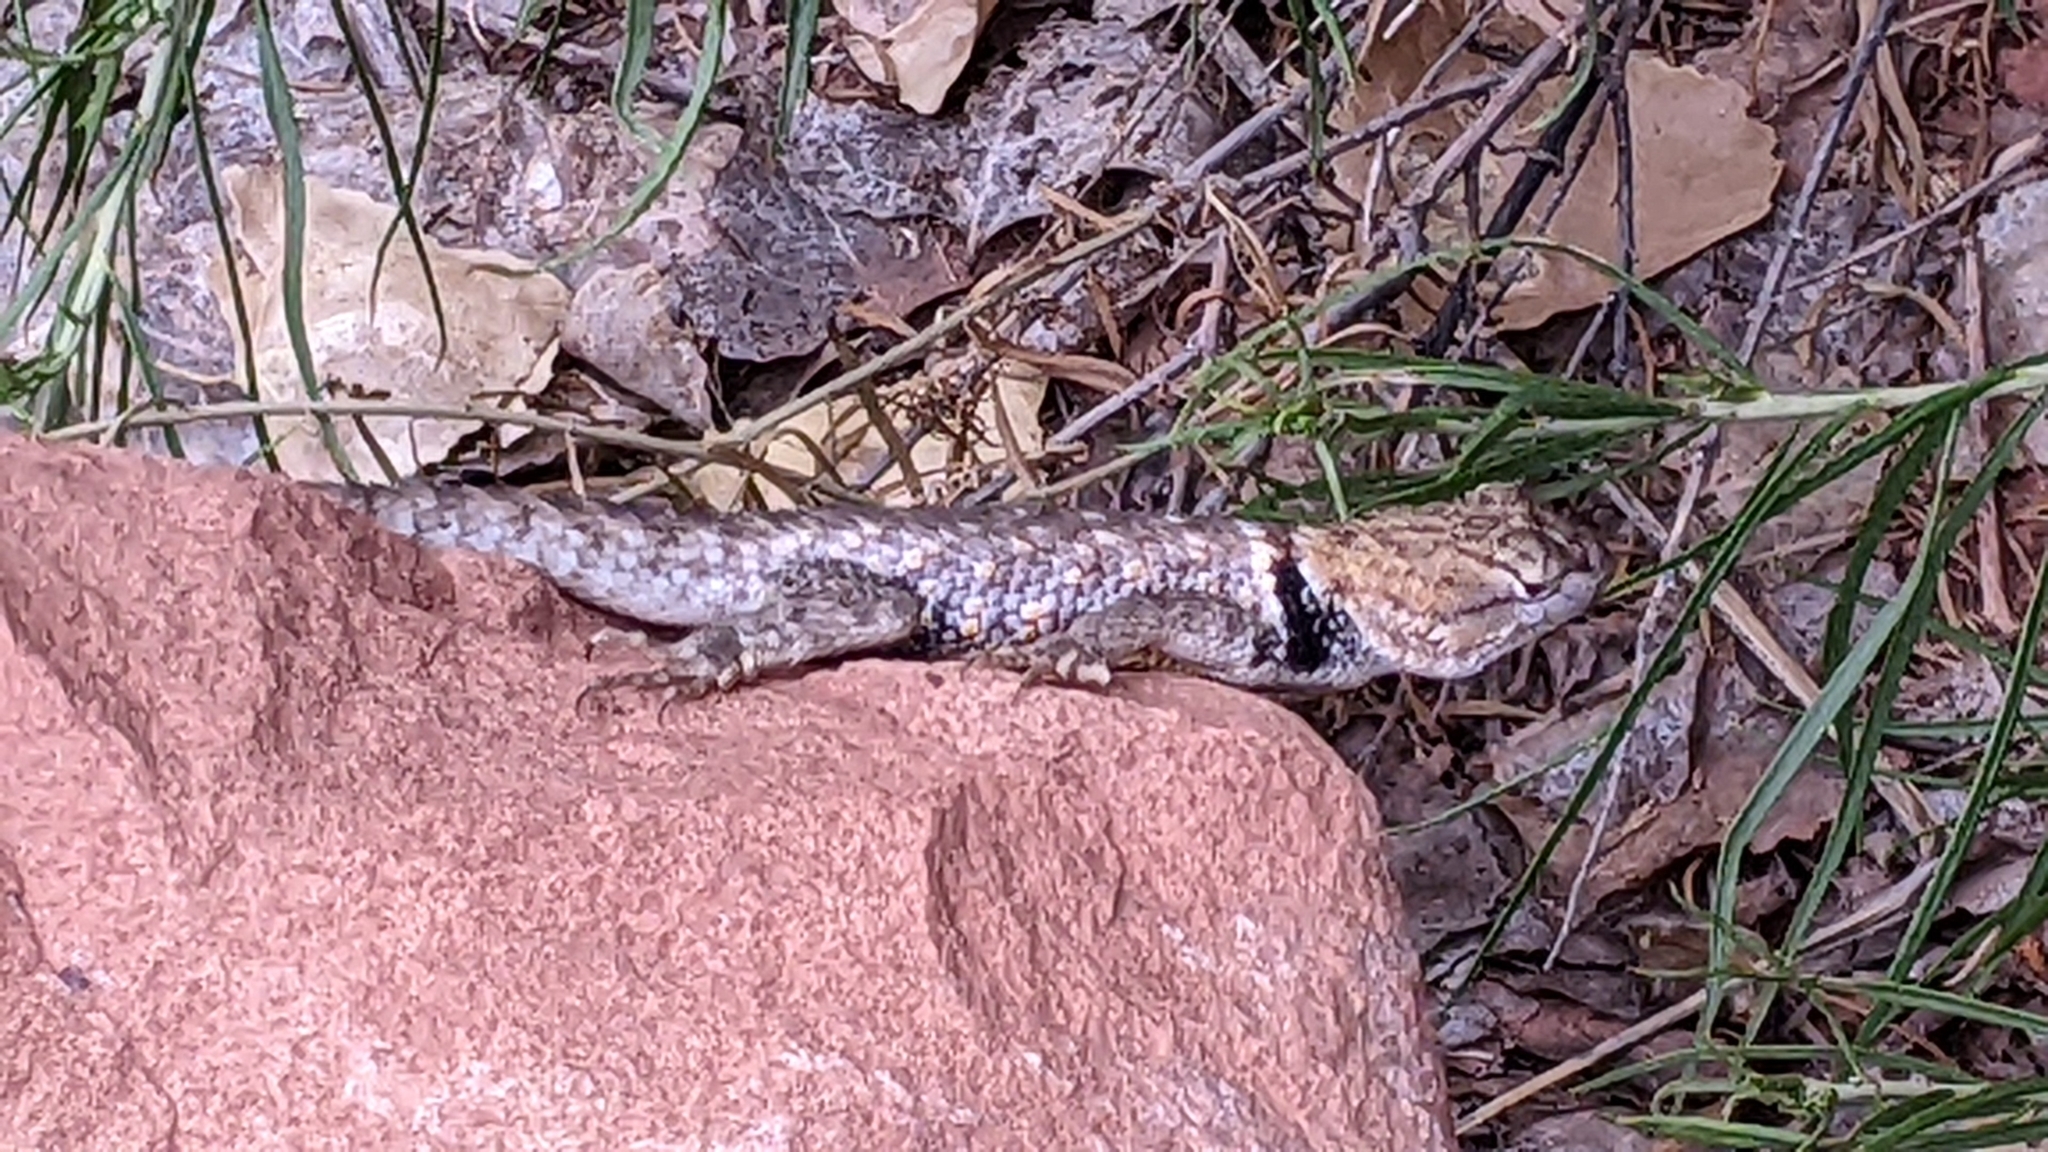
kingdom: Animalia
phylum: Chordata
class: Squamata
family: Phrynosomatidae
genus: Sceloporus
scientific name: Sceloporus uniformis
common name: Yellow-backed spiny lizard
